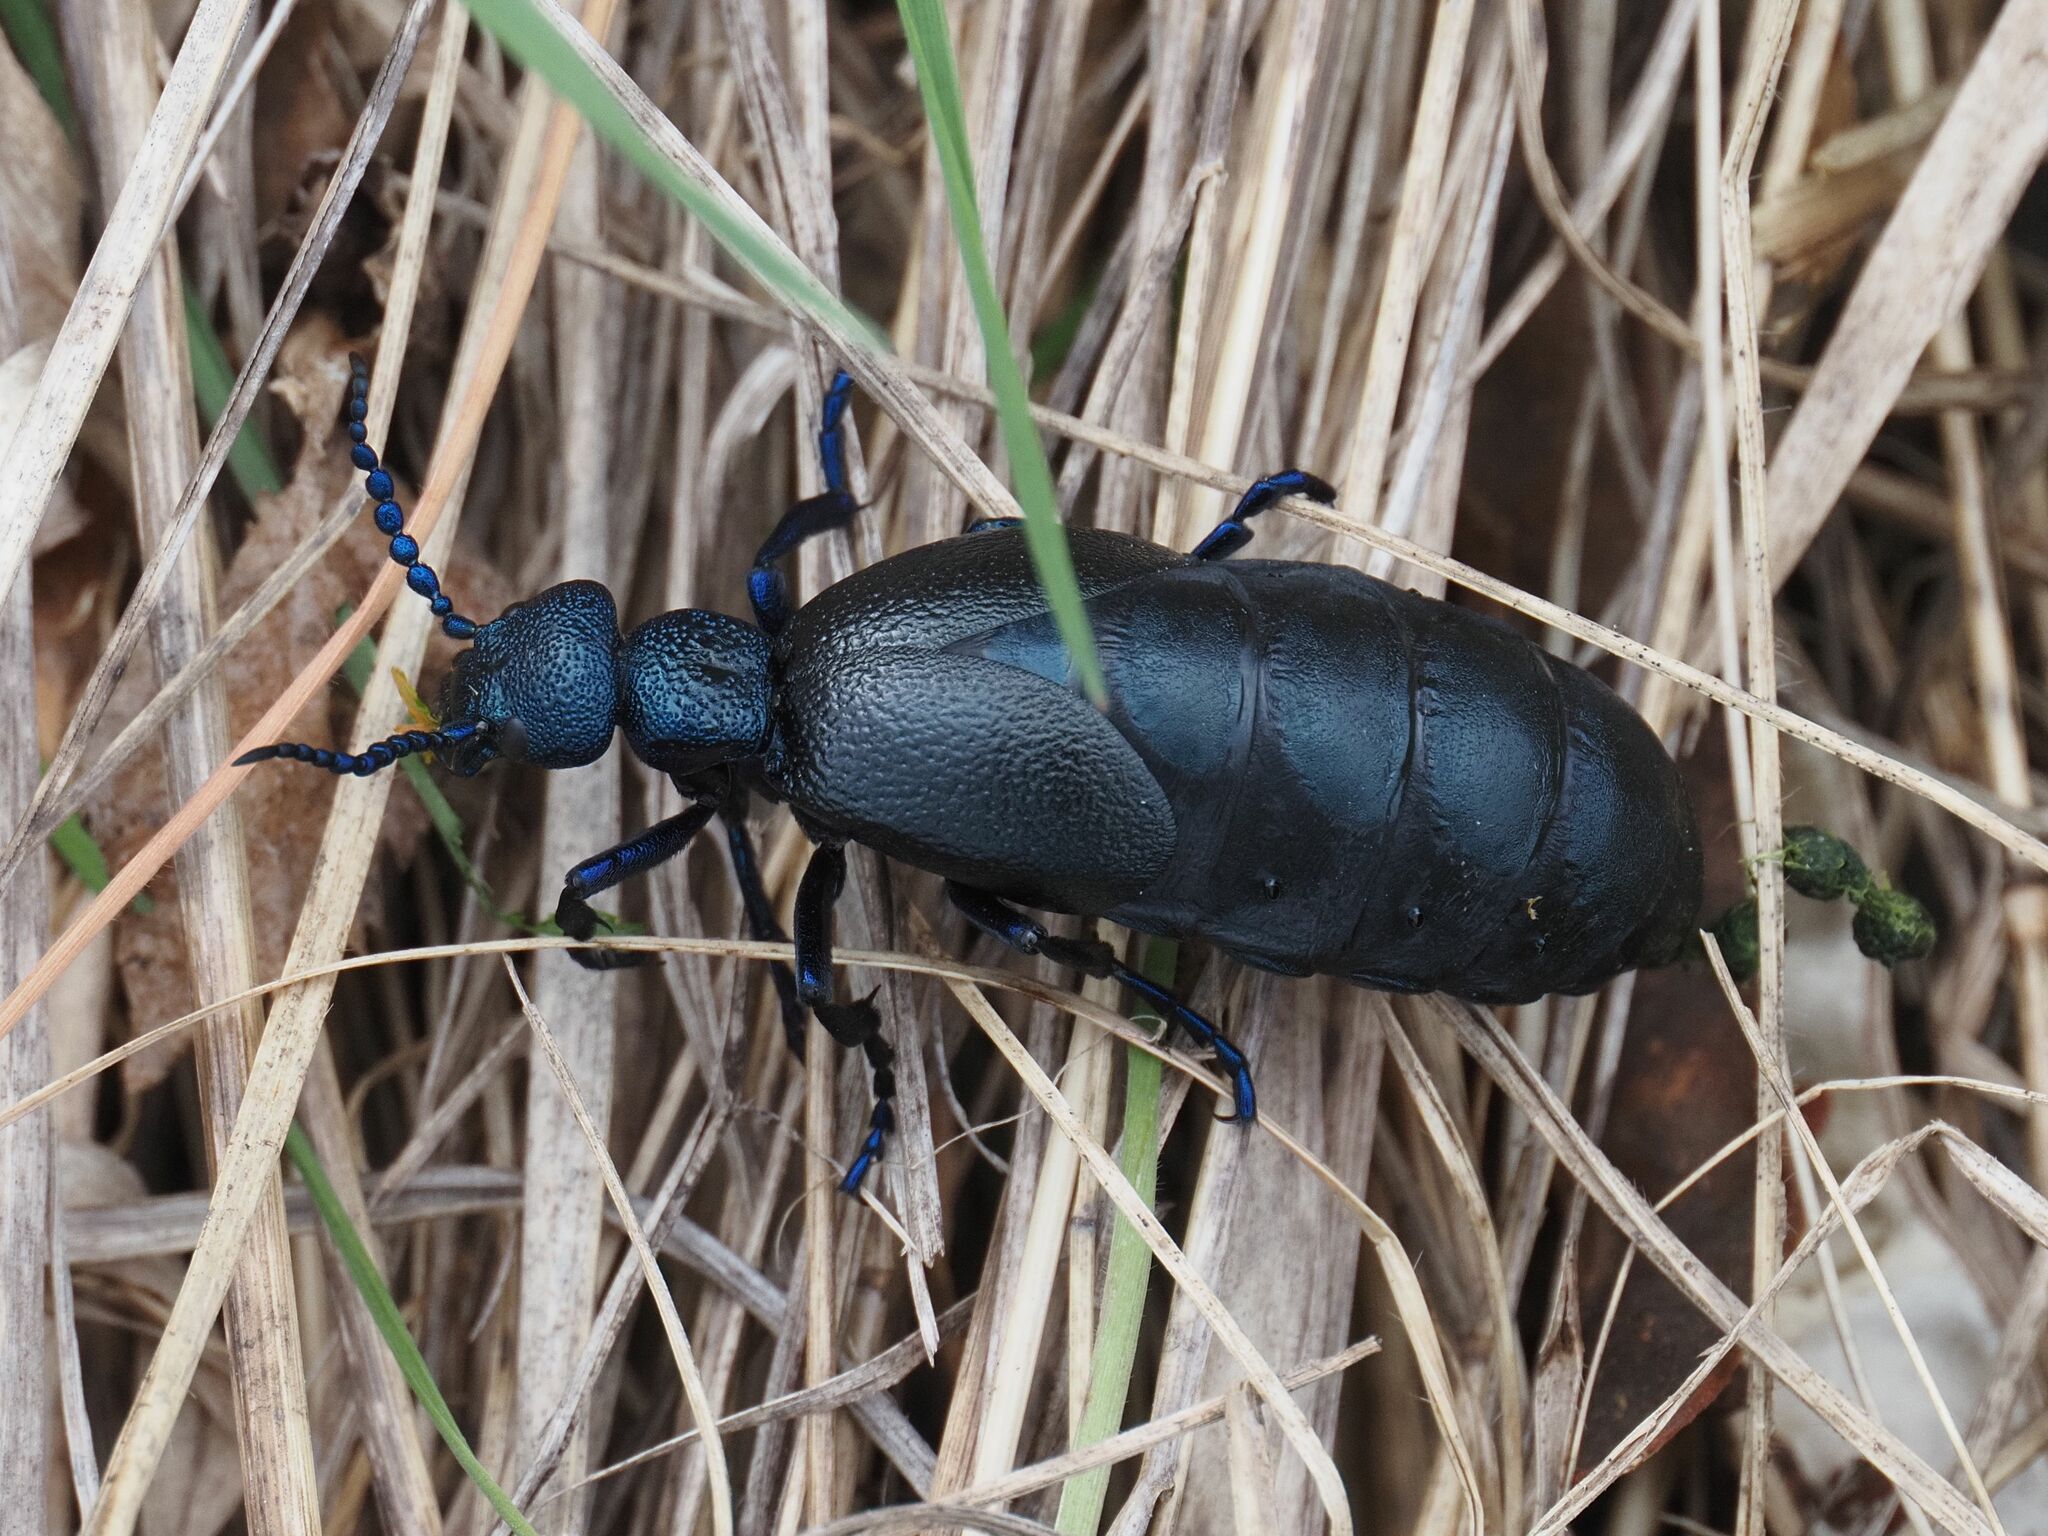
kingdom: Animalia
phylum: Arthropoda
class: Insecta
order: Coleoptera
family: Meloidae
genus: Meloe
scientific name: Meloe proscarabaeus
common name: Black oil-beetle
